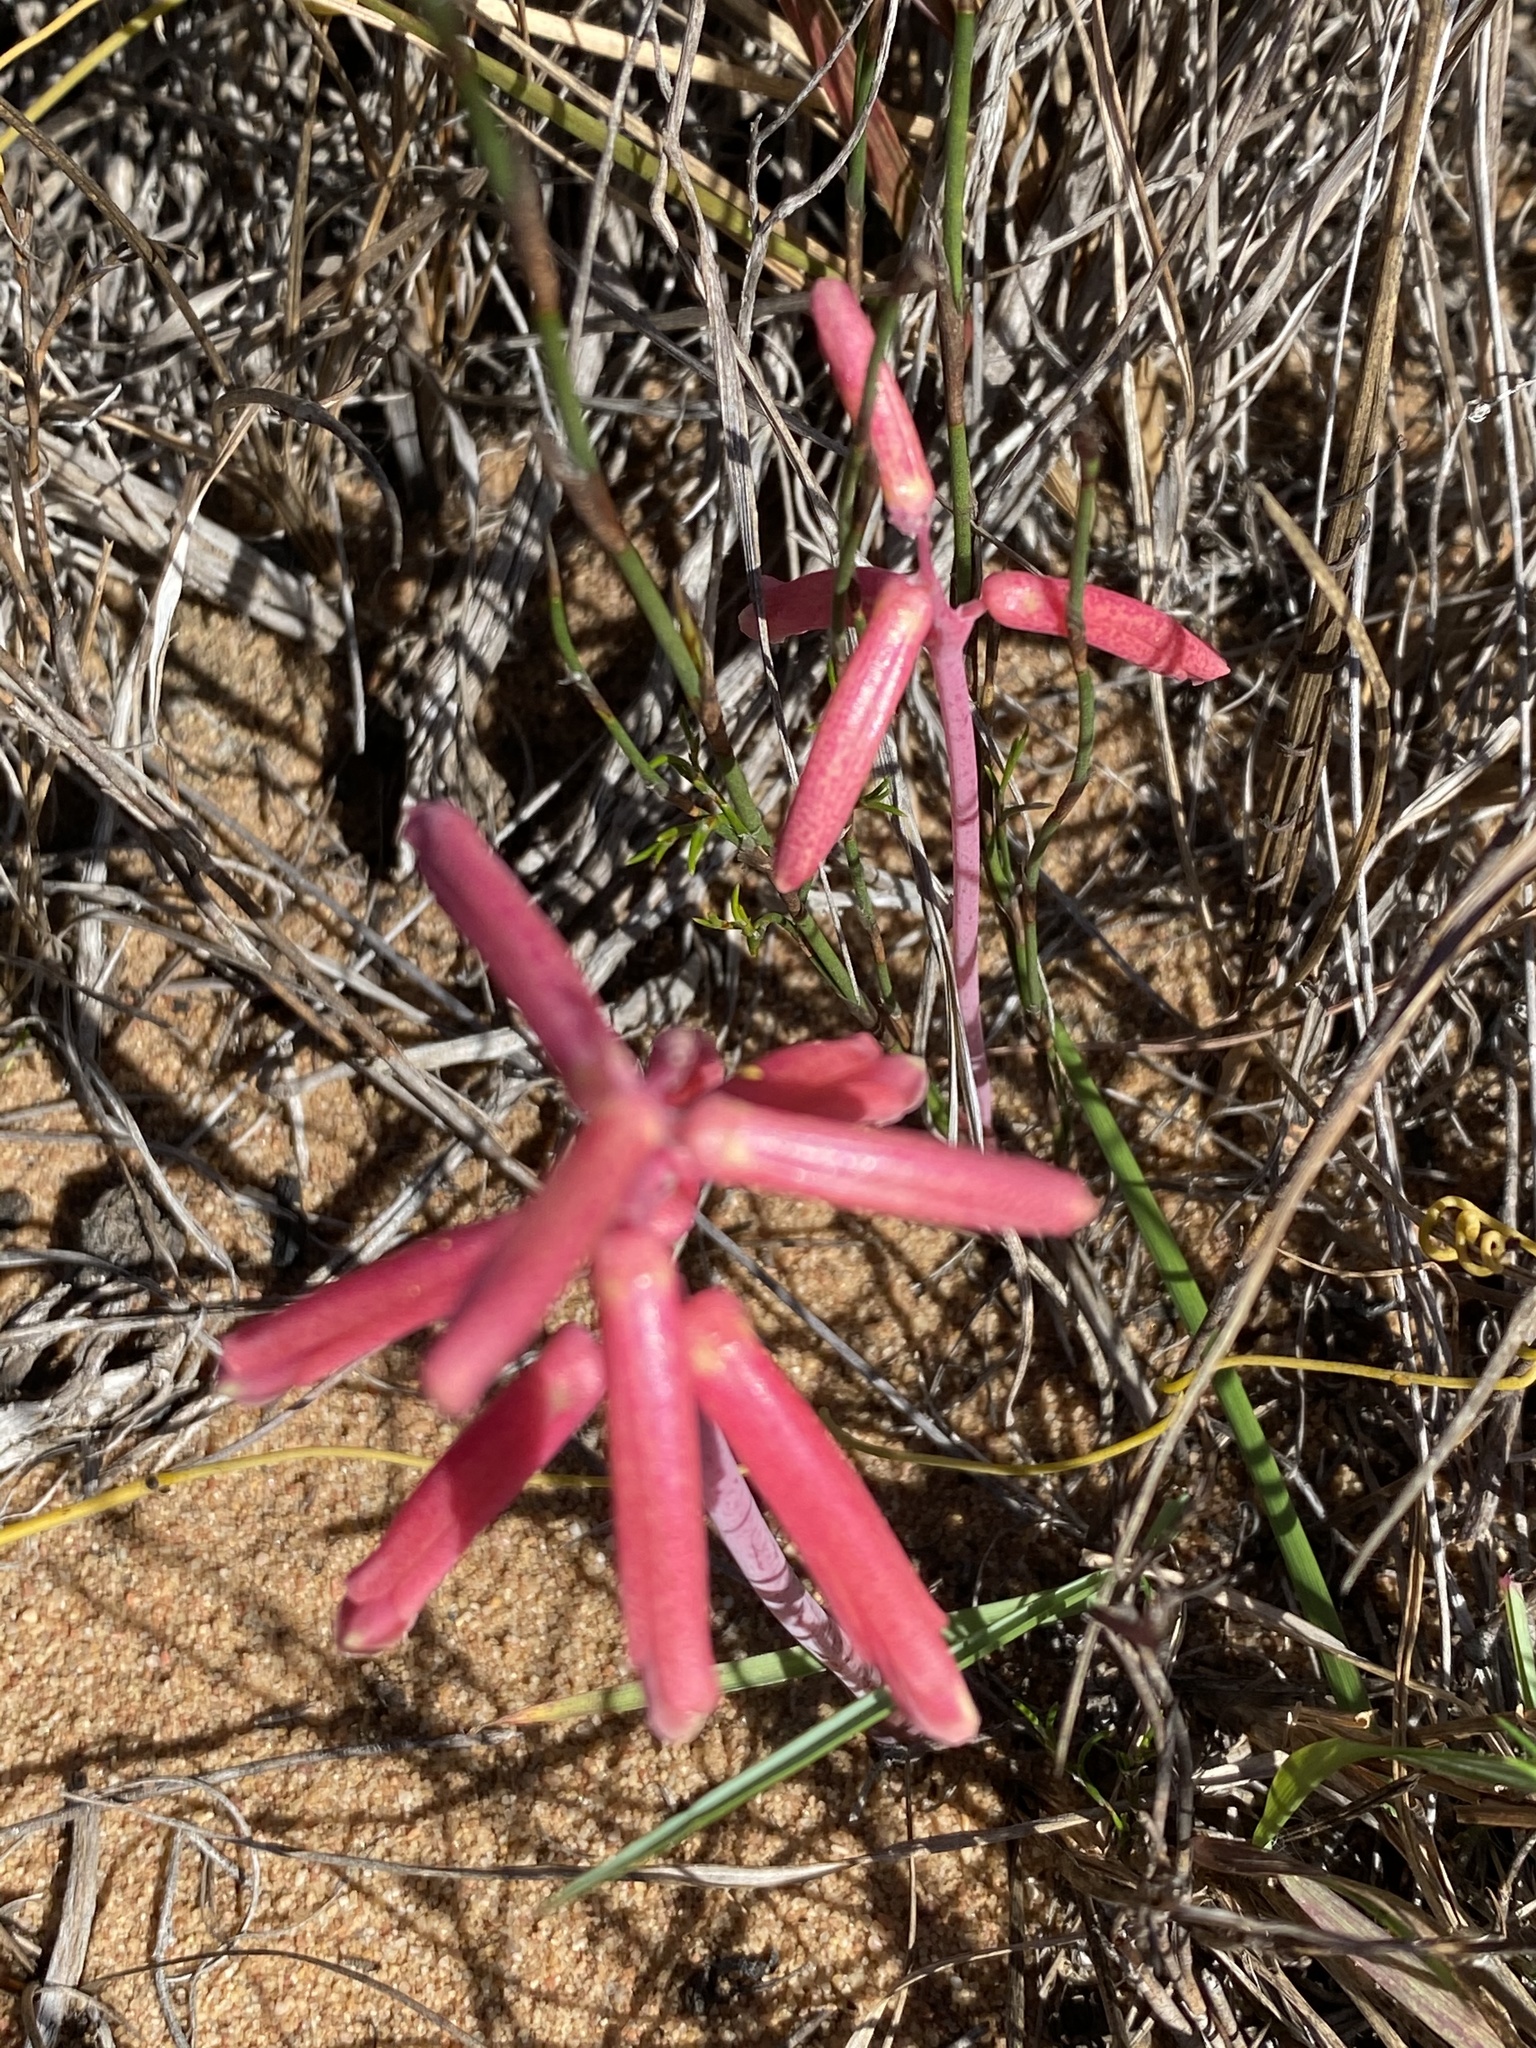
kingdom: Plantae
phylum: Tracheophyta
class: Liliopsida
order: Asparagales
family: Asparagaceae
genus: Lachenalia
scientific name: Lachenalia punctata
